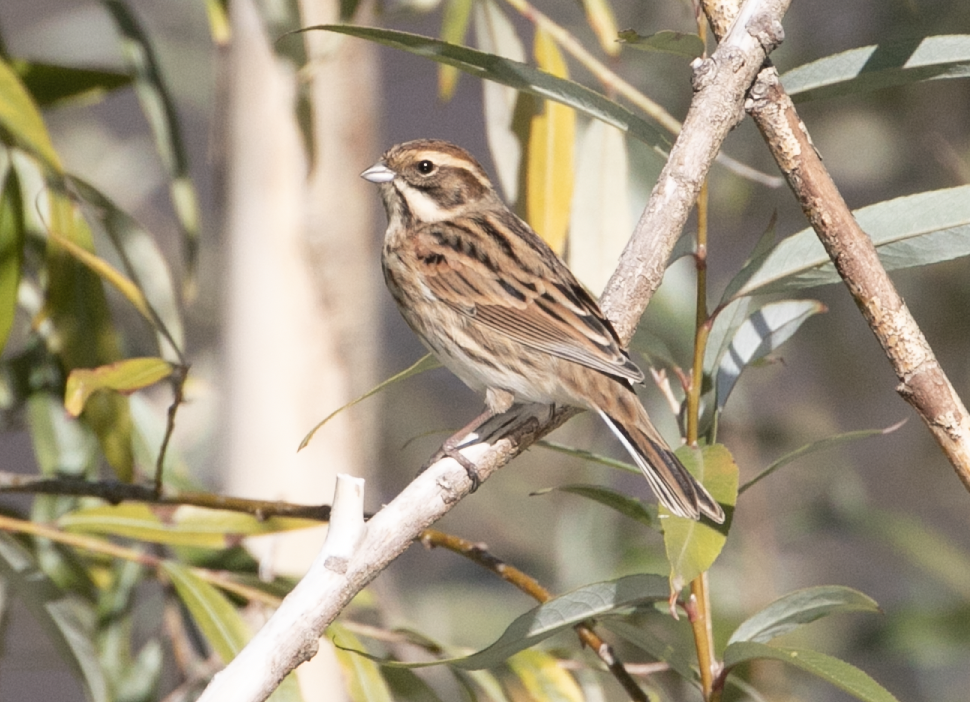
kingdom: Animalia
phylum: Chordata
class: Aves
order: Passeriformes
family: Emberizidae
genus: Emberiza
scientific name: Emberiza schoeniclus
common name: Reed bunting
